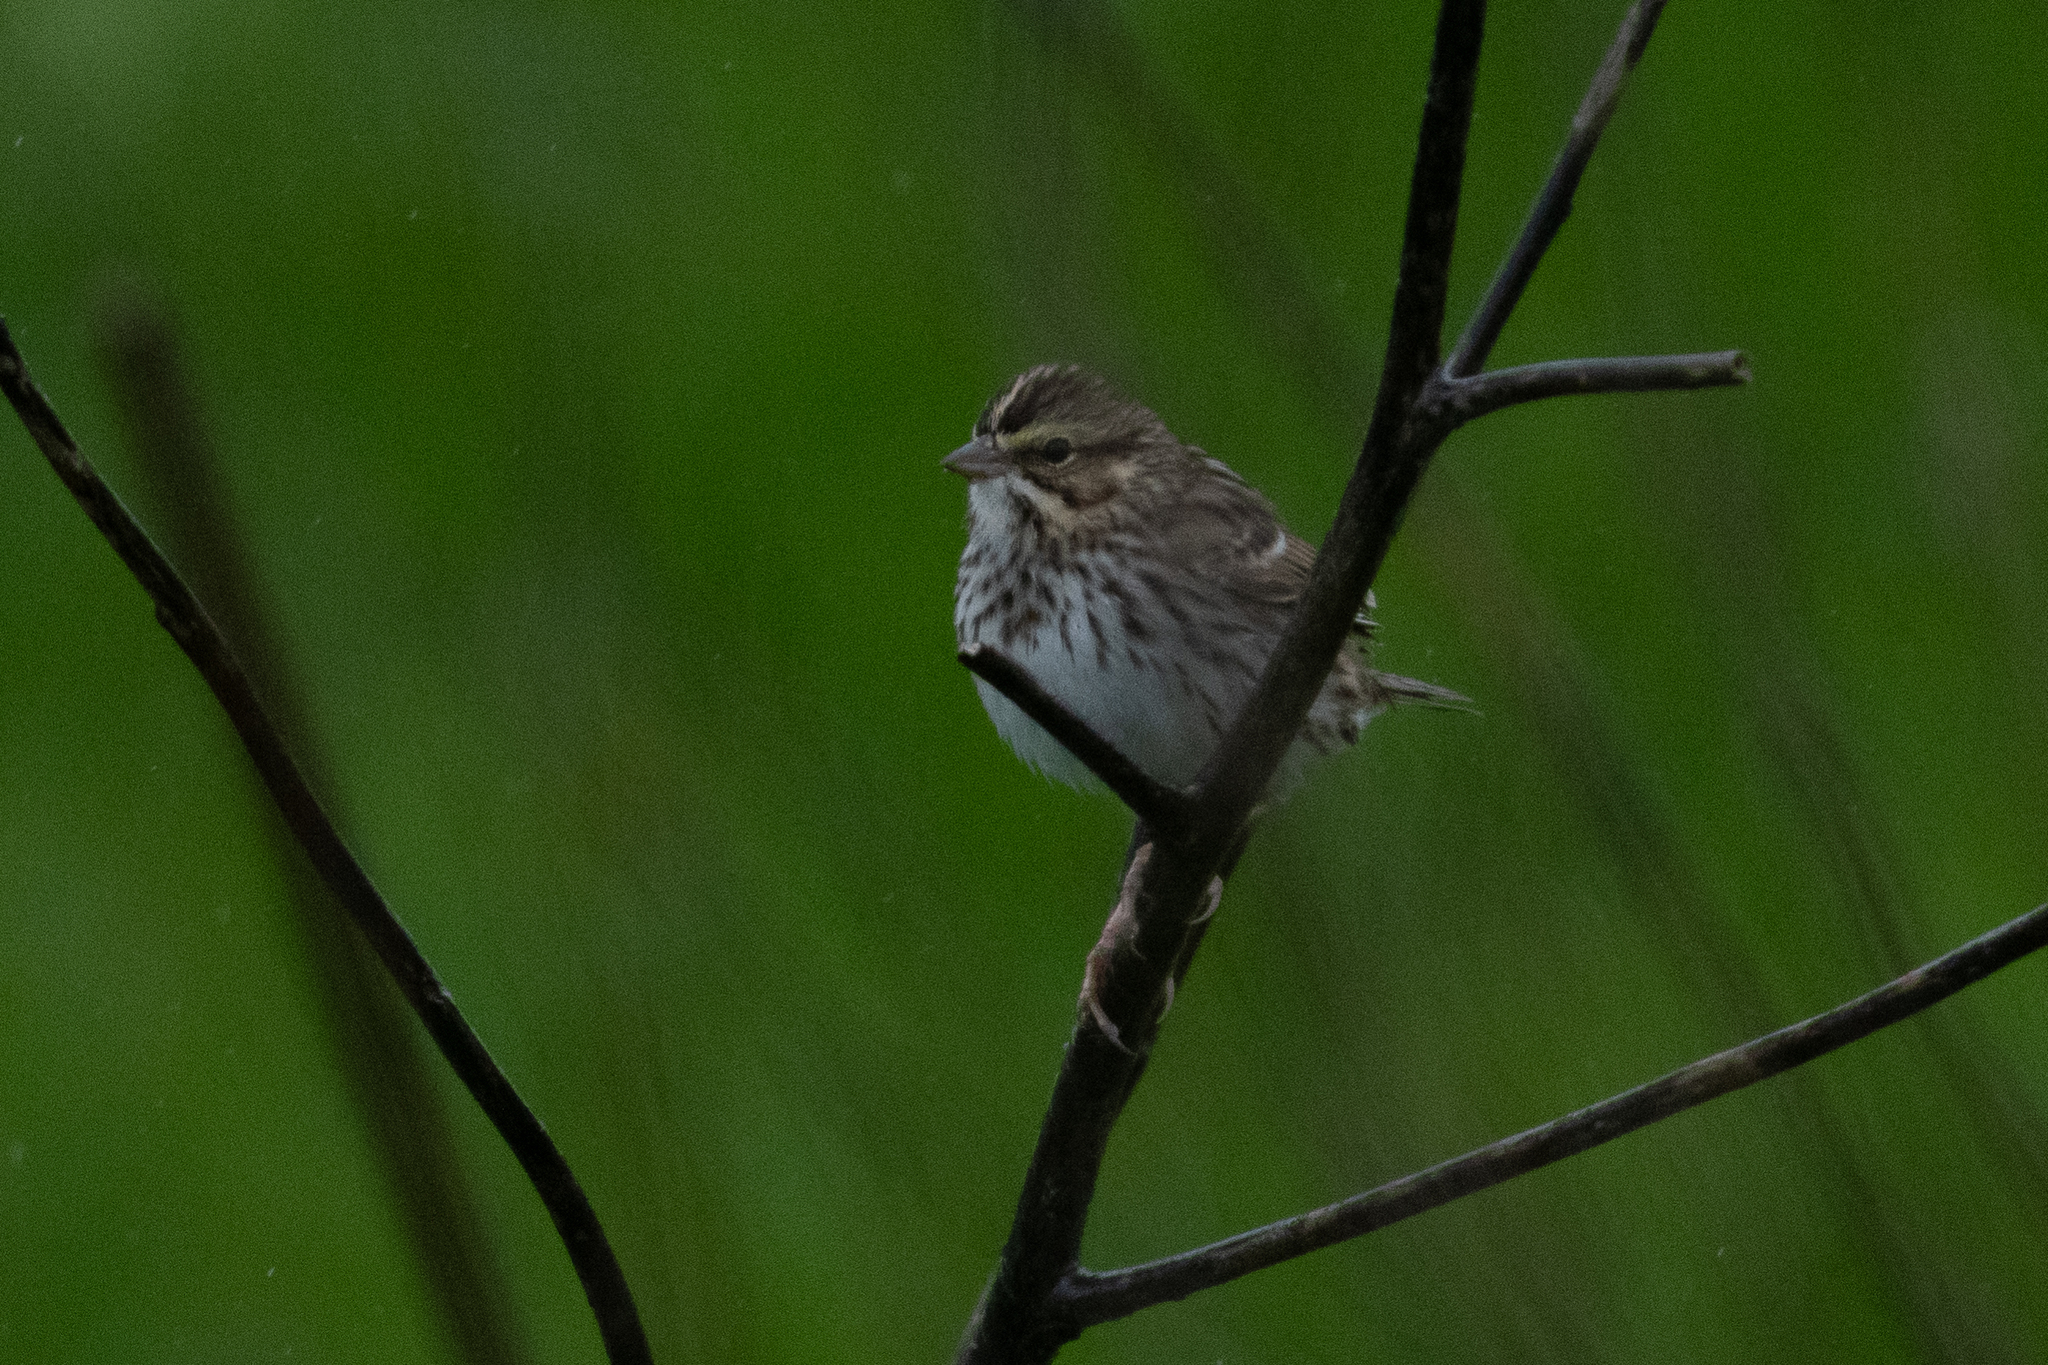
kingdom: Animalia
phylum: Chordata
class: Aves
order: Passeriformes
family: Passerellidae
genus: Passerculus
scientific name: Passerculus sandwichensis
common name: Savannah sparrow
